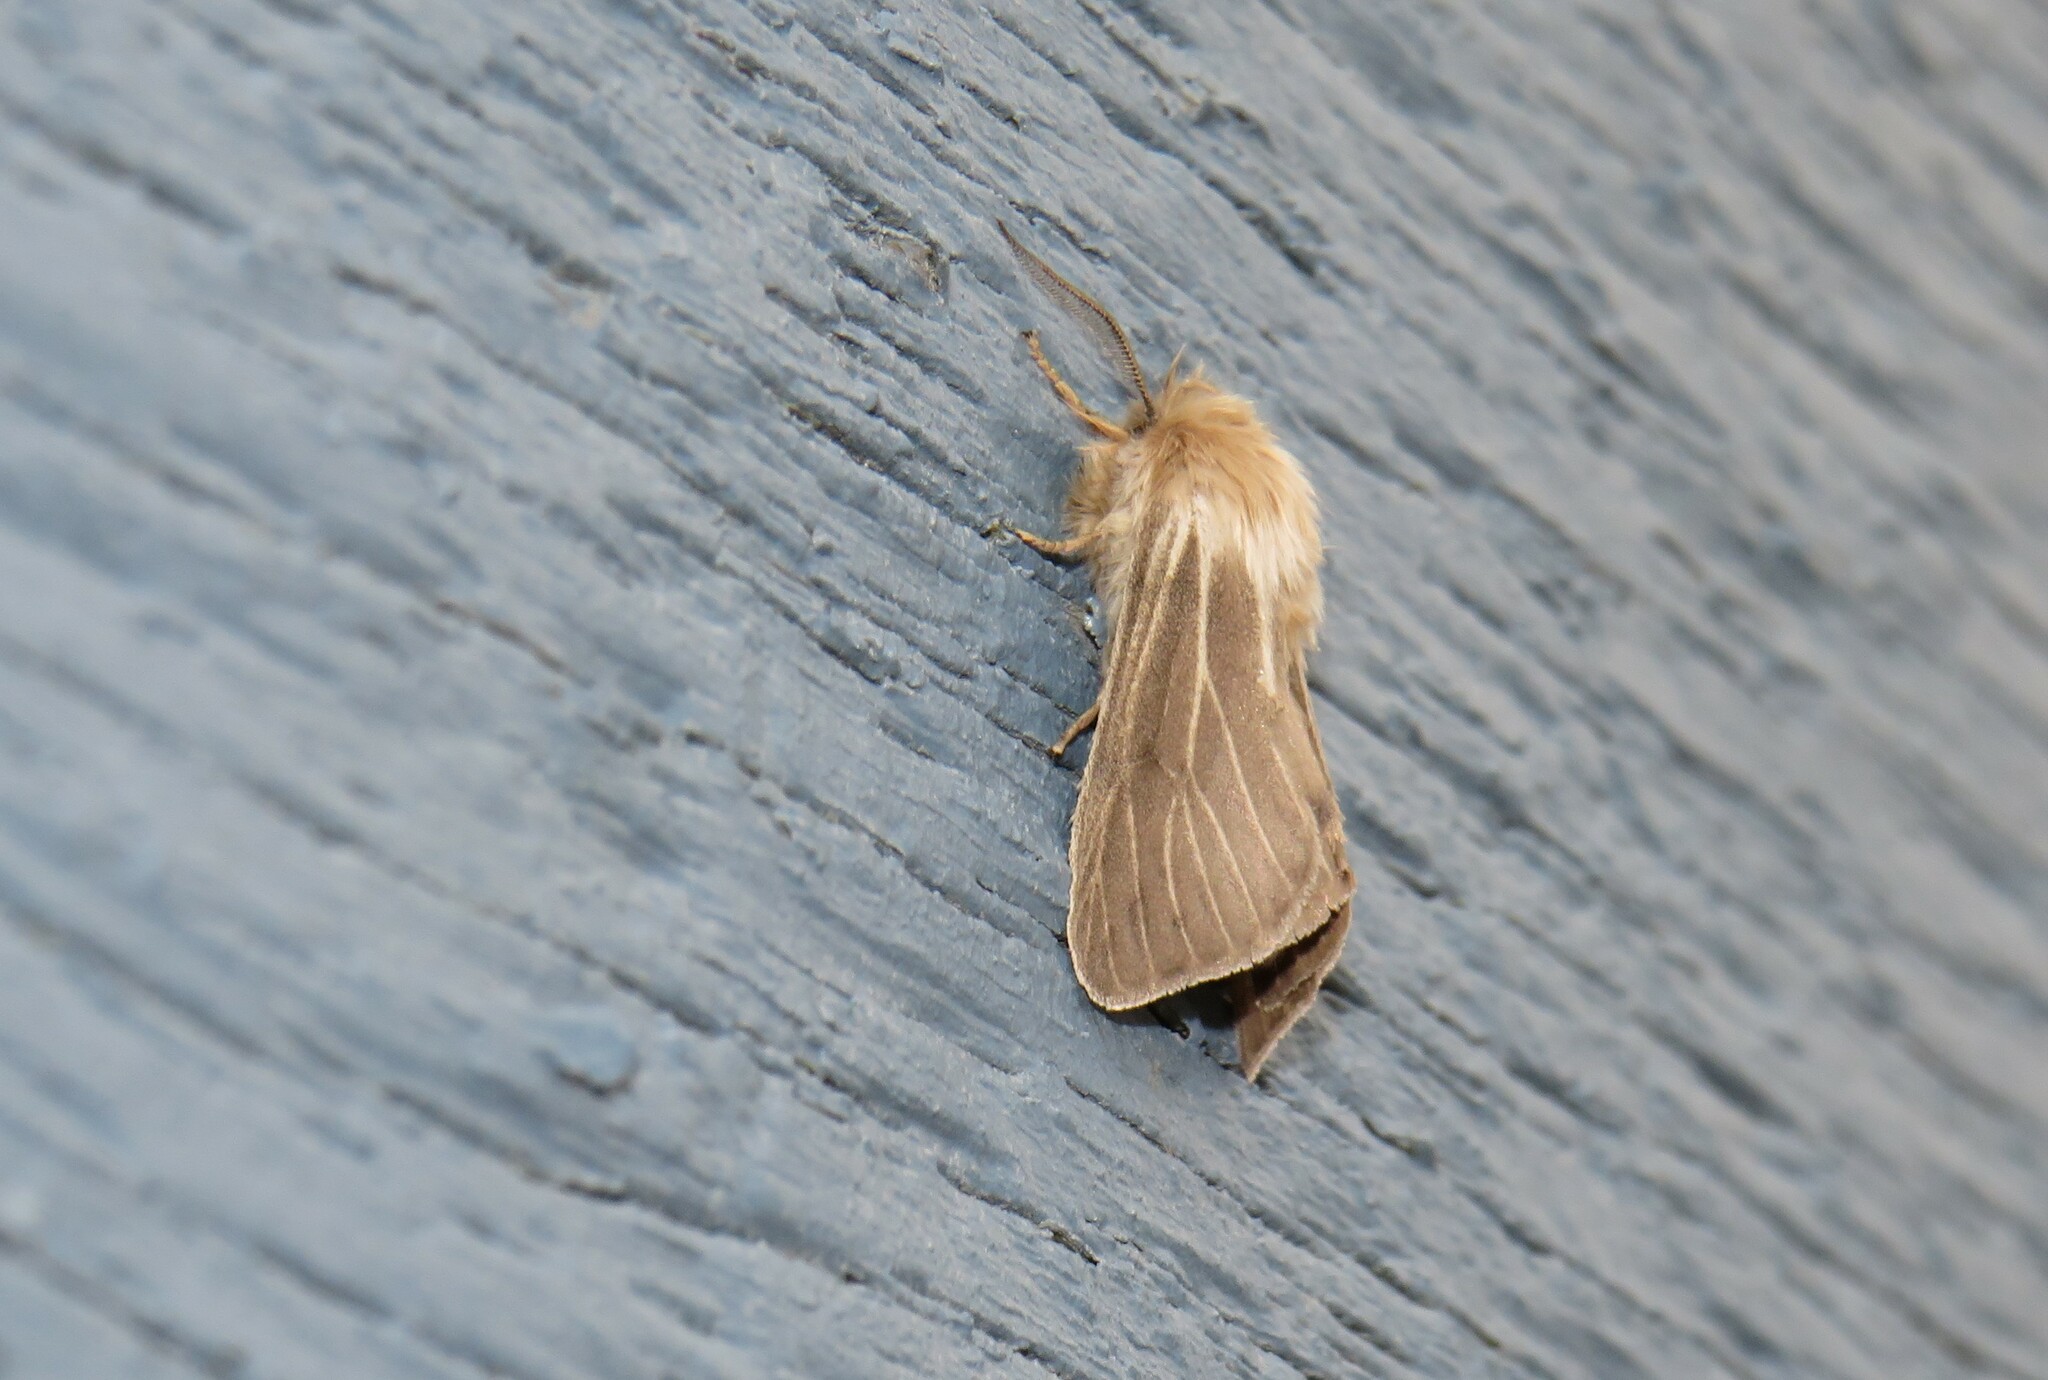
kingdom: Animalia
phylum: Arthropoda
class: Insecta
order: Lepidoptera
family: Erebidae
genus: Spilosoma
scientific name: Spilosoma dubia
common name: Dubious tiger moth
